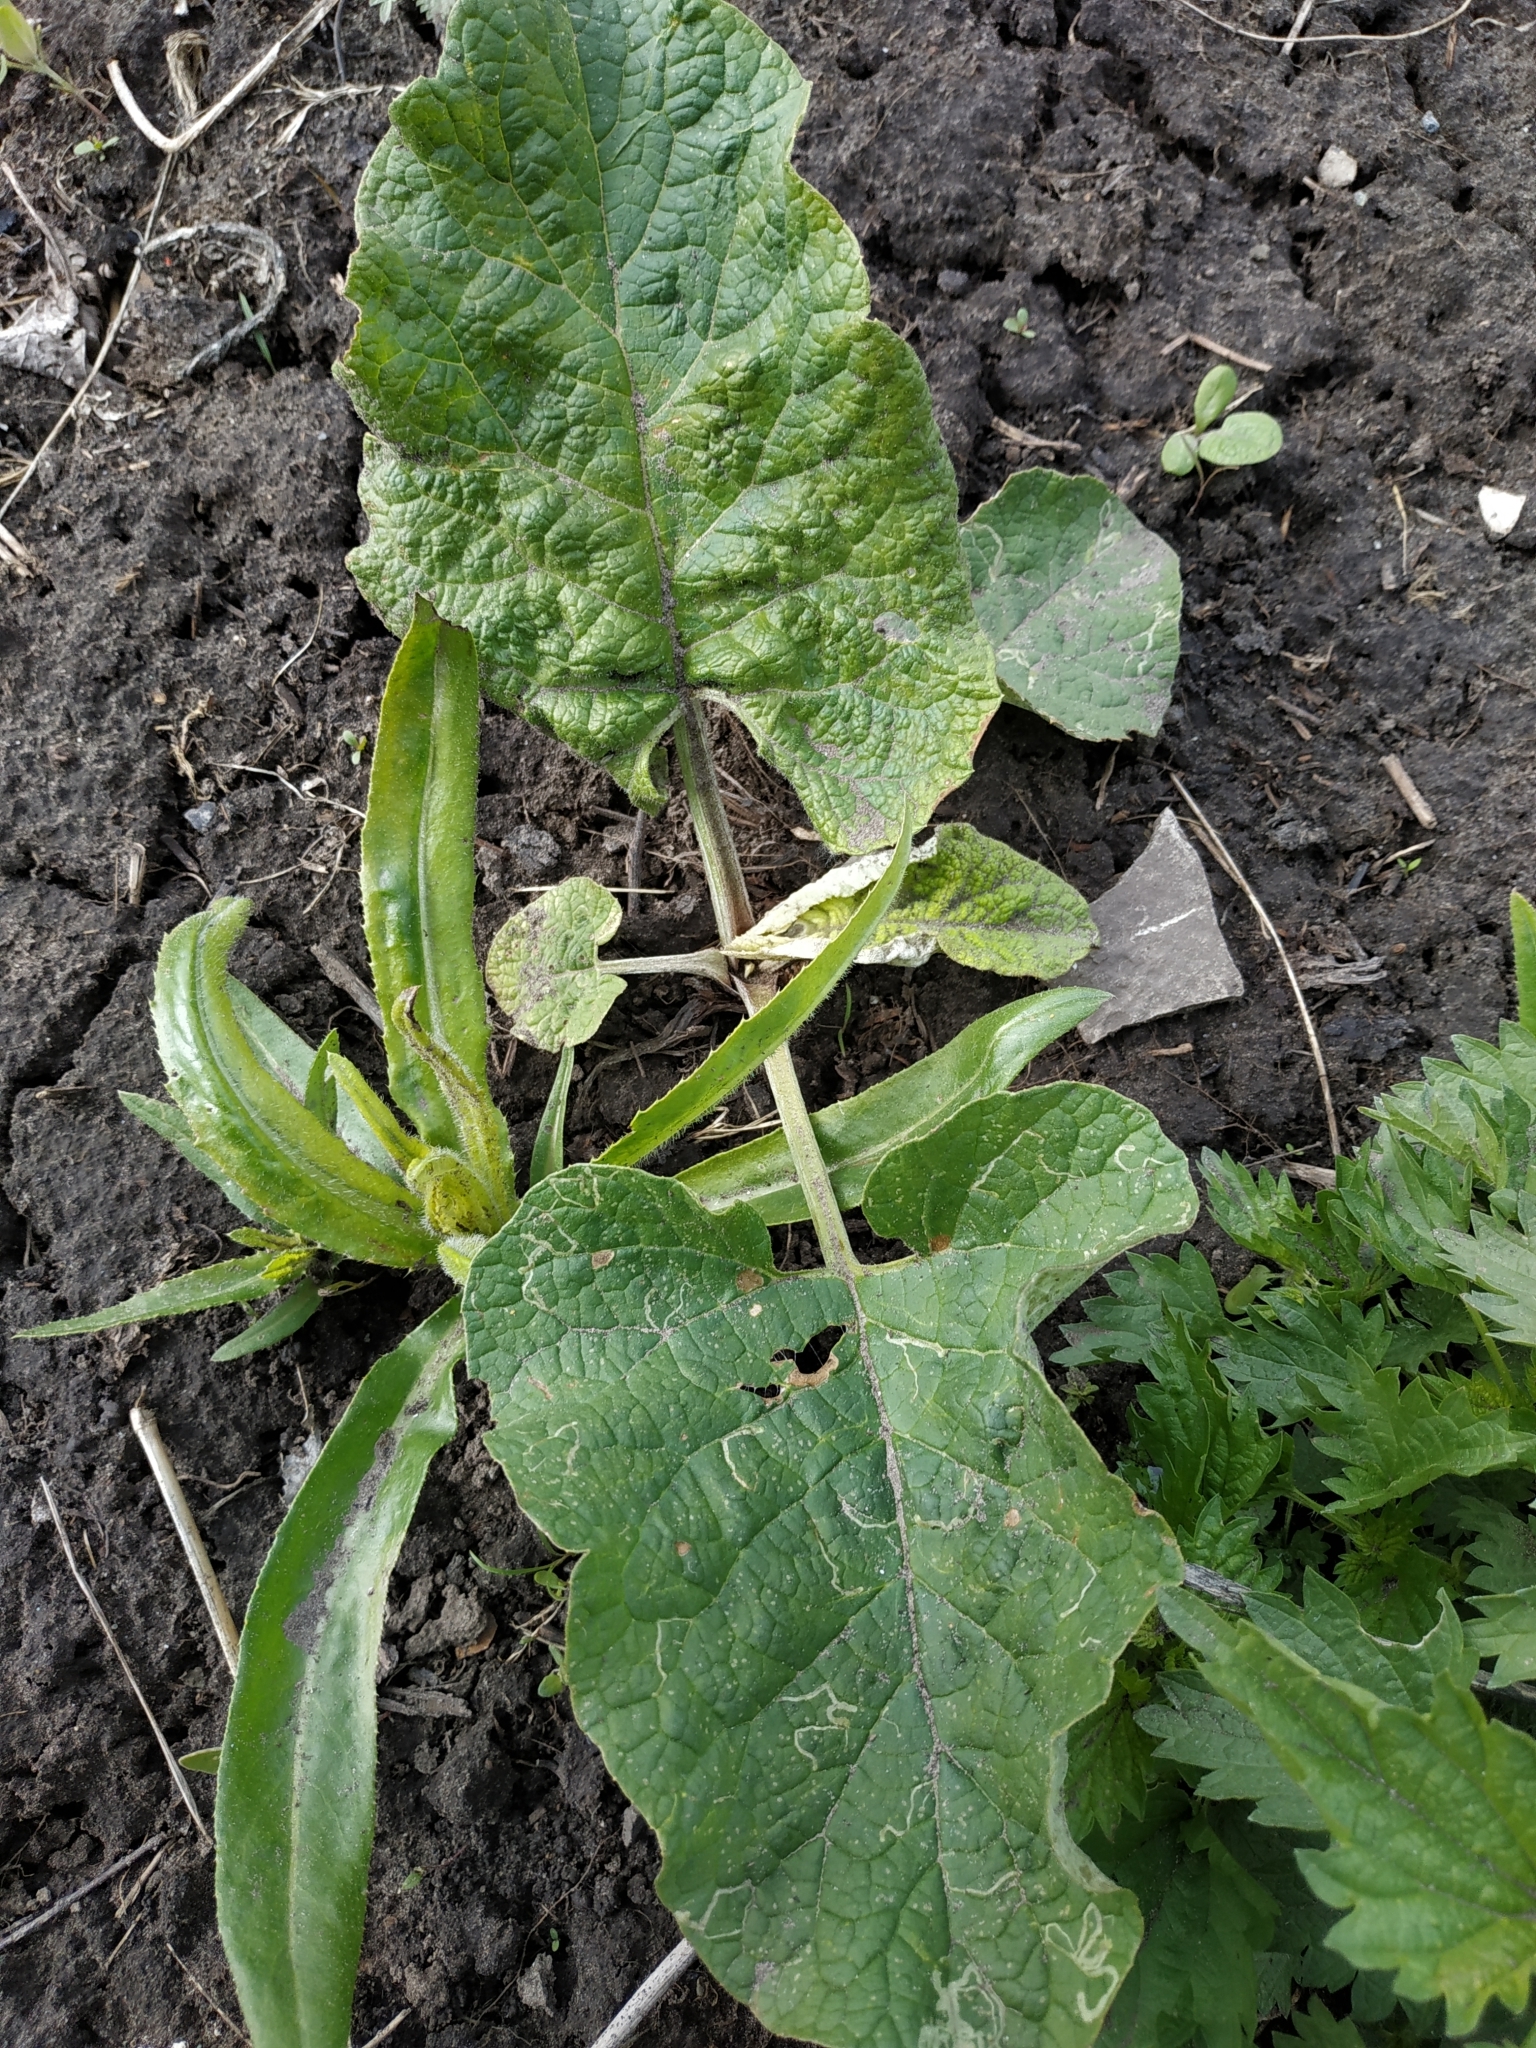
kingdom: Plantae
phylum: Tracheophyta
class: Magnoliopsida
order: Asterales
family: Asteraceae
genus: Arctium
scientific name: Arctium tomentosum
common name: Woolly burdock
